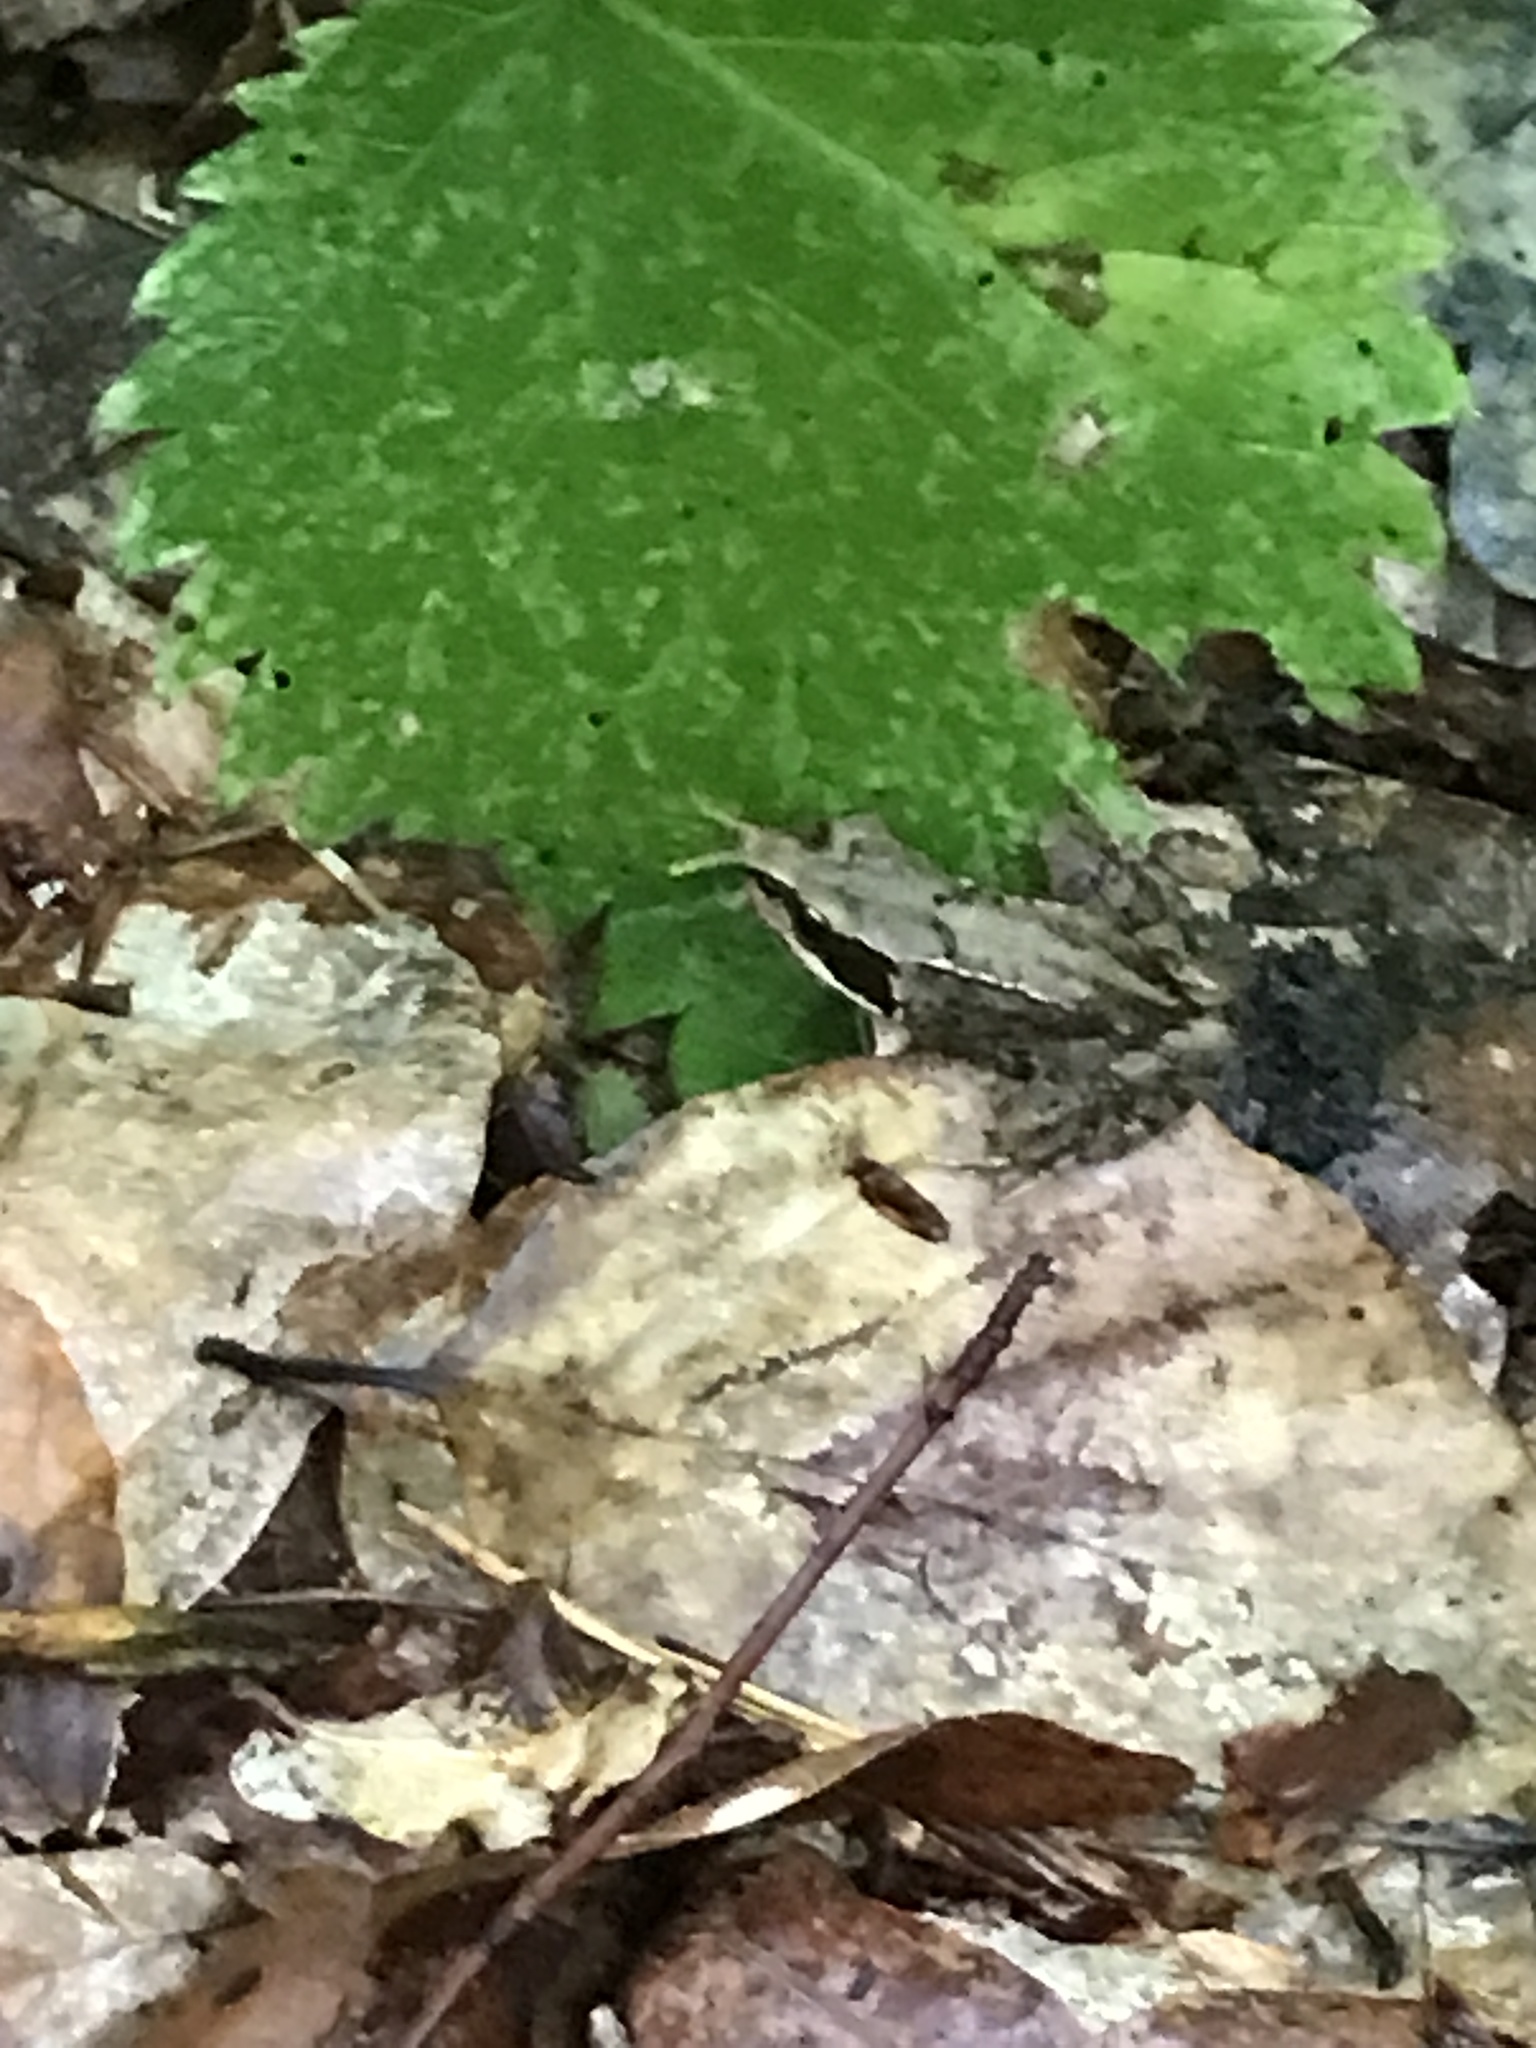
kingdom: Animalia
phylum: Chordata
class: Amphibia
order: Anura
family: Ranidae
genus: Rana
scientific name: Rana temporaria
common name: Common frog
